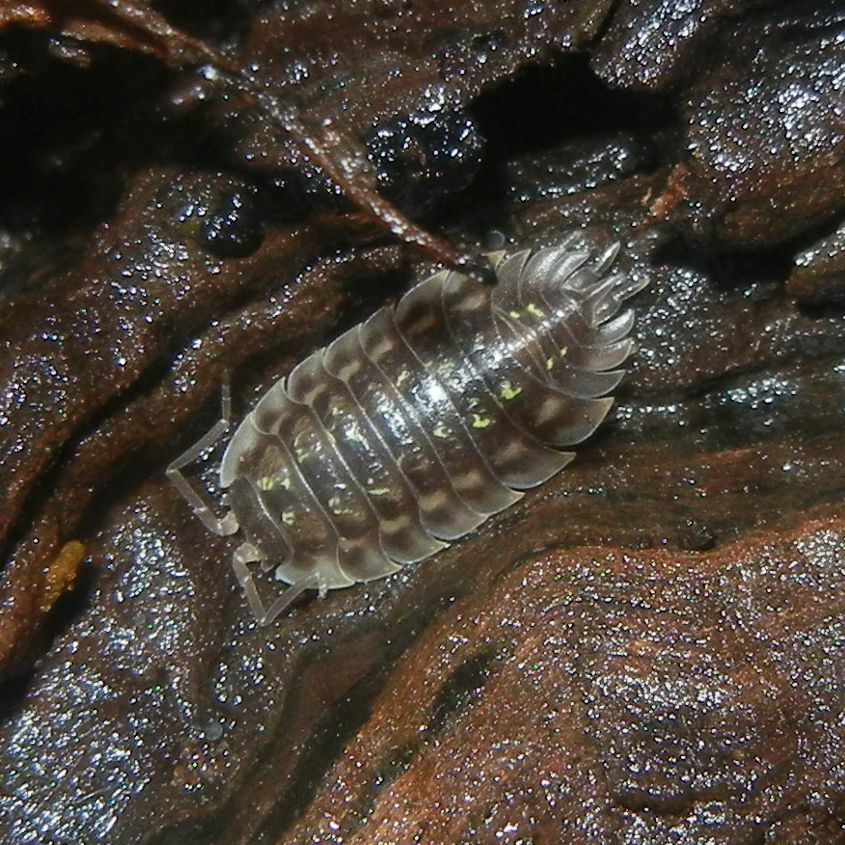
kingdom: Animalia
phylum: Arthropoda
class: Malacostraca
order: Isopoda
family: Oniscidae
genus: Oniscus
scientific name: Oniscus asellus
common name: Common shiny woodlouse
